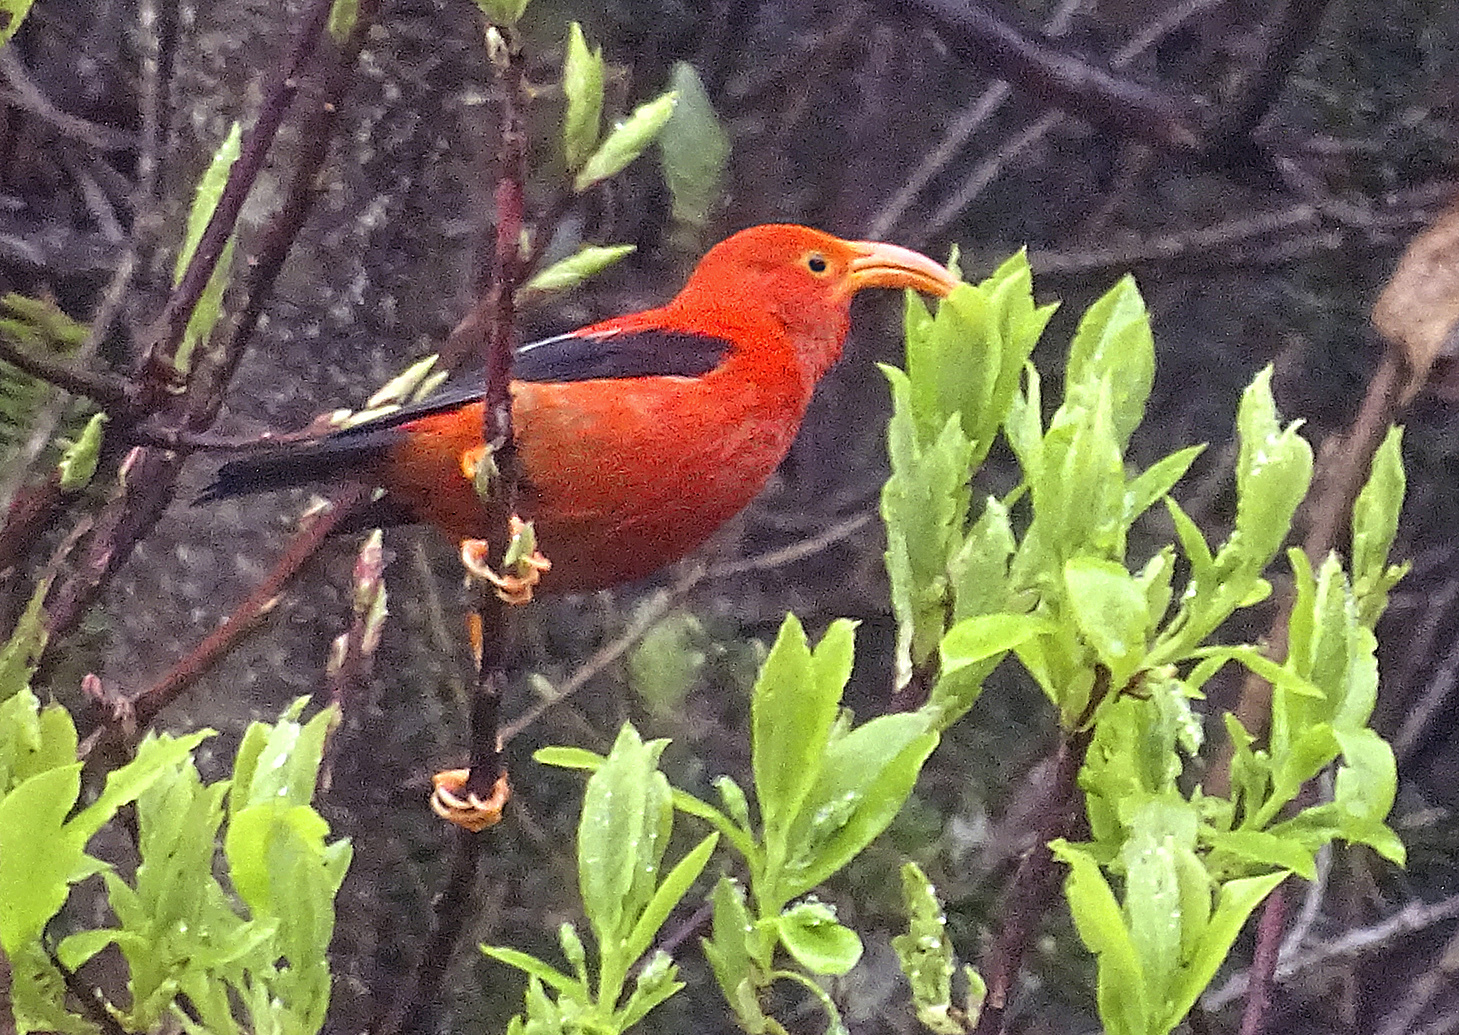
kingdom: Animalia
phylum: Chordata
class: Aves
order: Passeriformes
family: Fringillidae
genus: Vestiaria
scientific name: Vestiaria coccinea
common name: Iiwi
